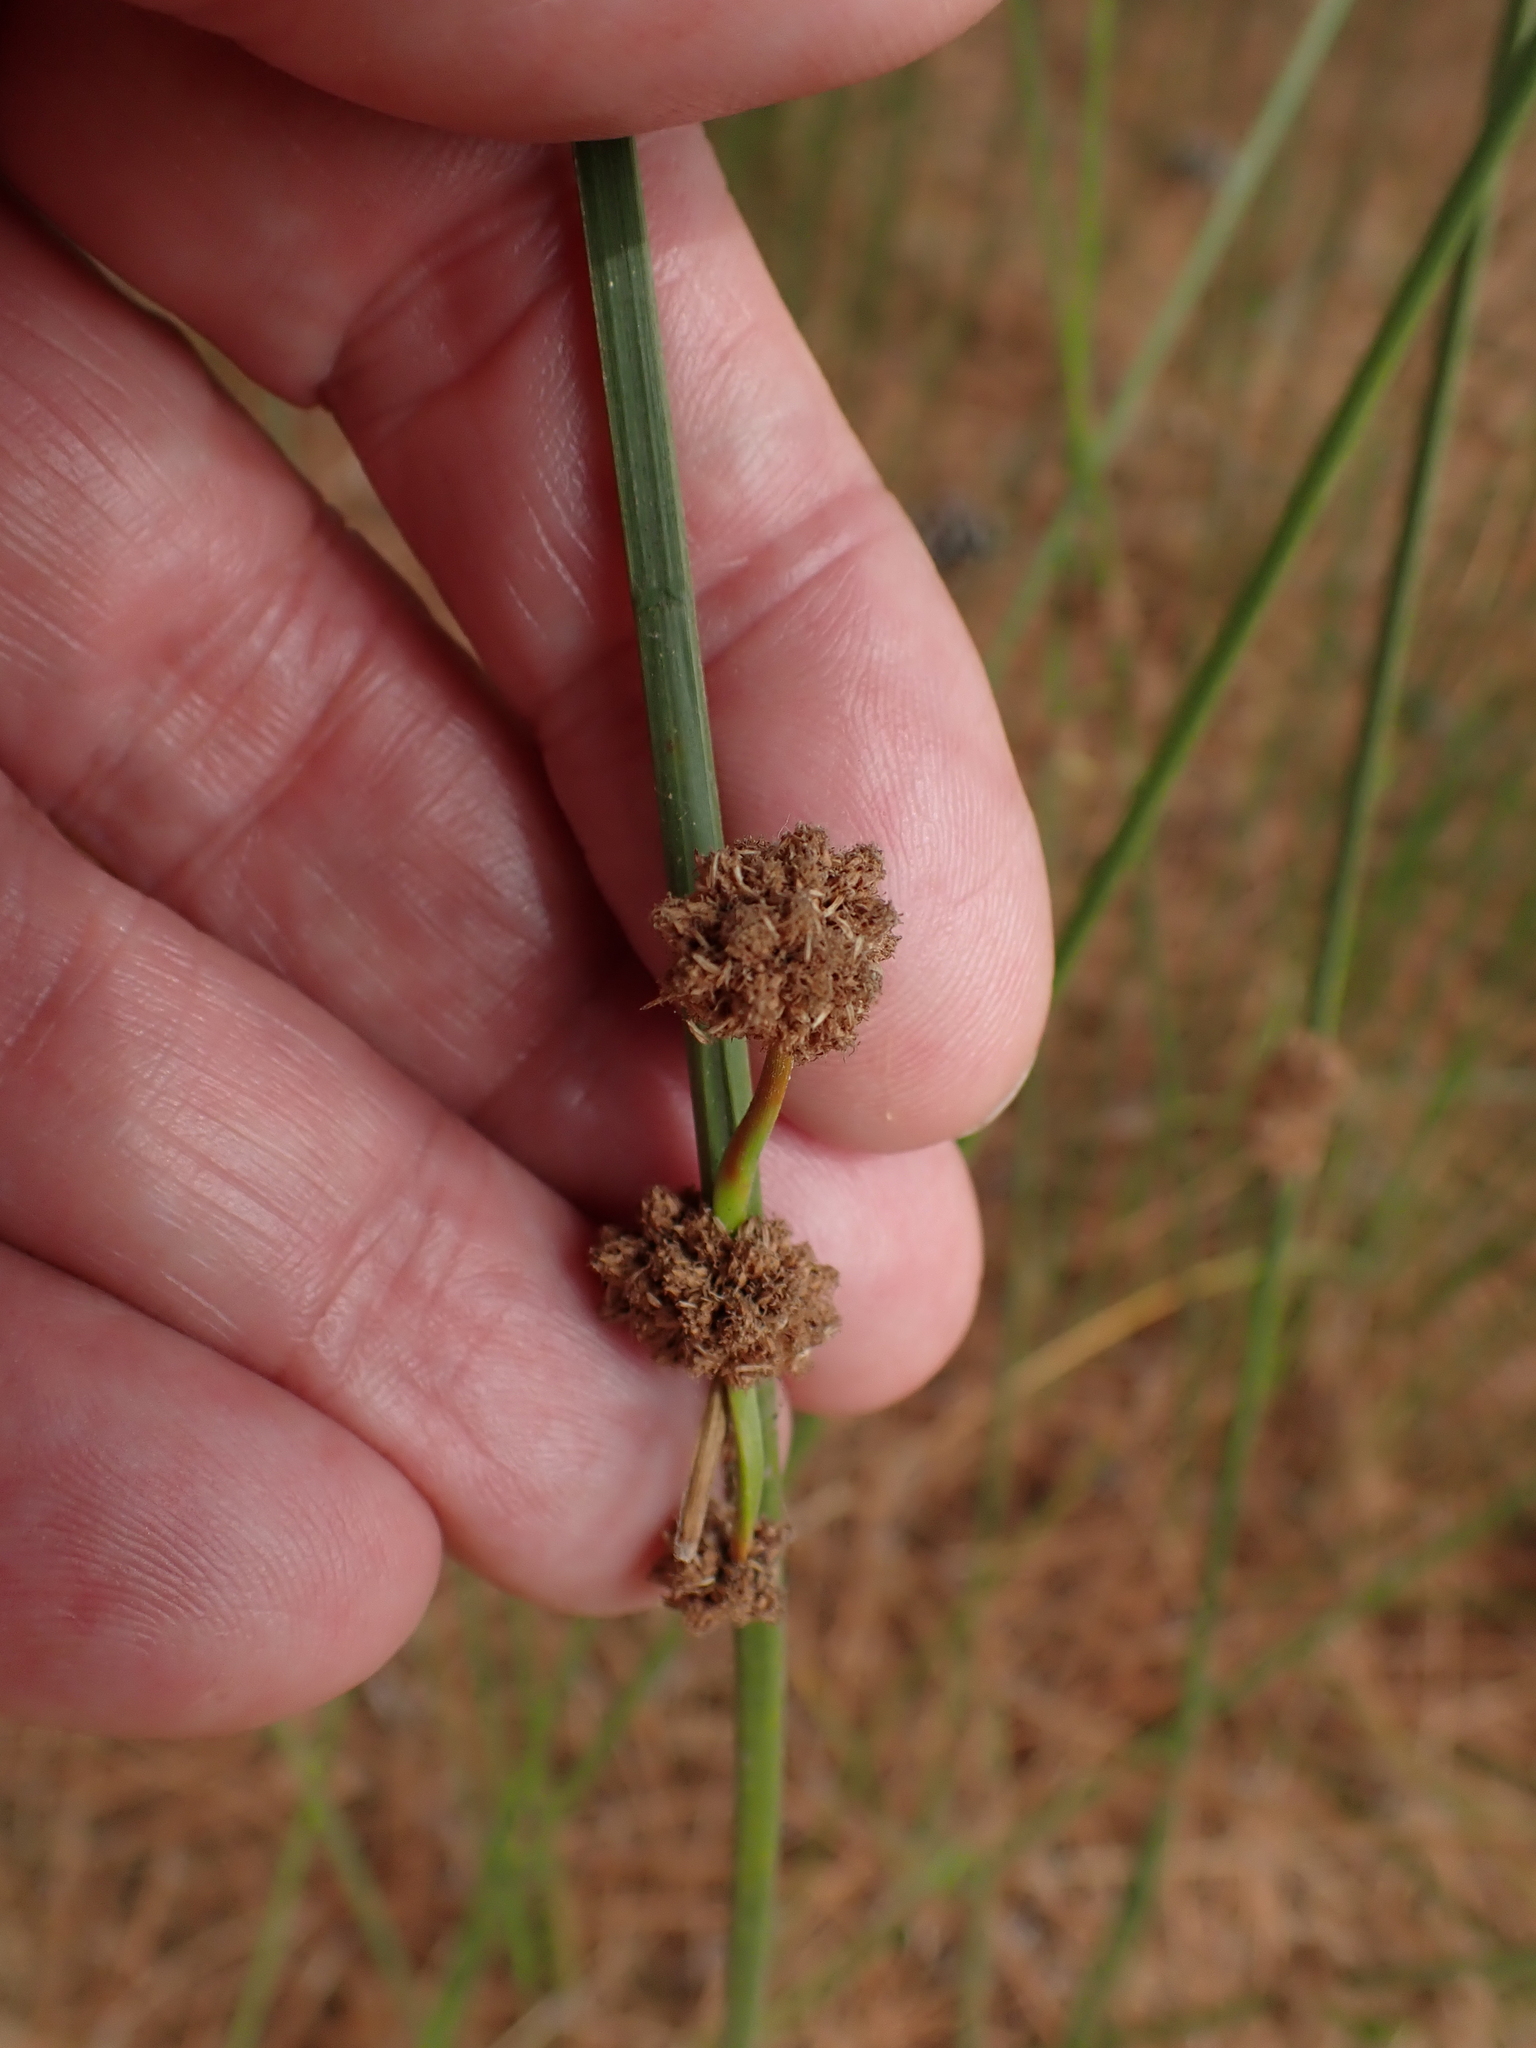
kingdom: Plantae
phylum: Tracheophyta
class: Liliopsida
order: Poales
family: Cyperaceae
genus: Scirpoides
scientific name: Scirpoides holoschoenus
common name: Round-headed club-rush
